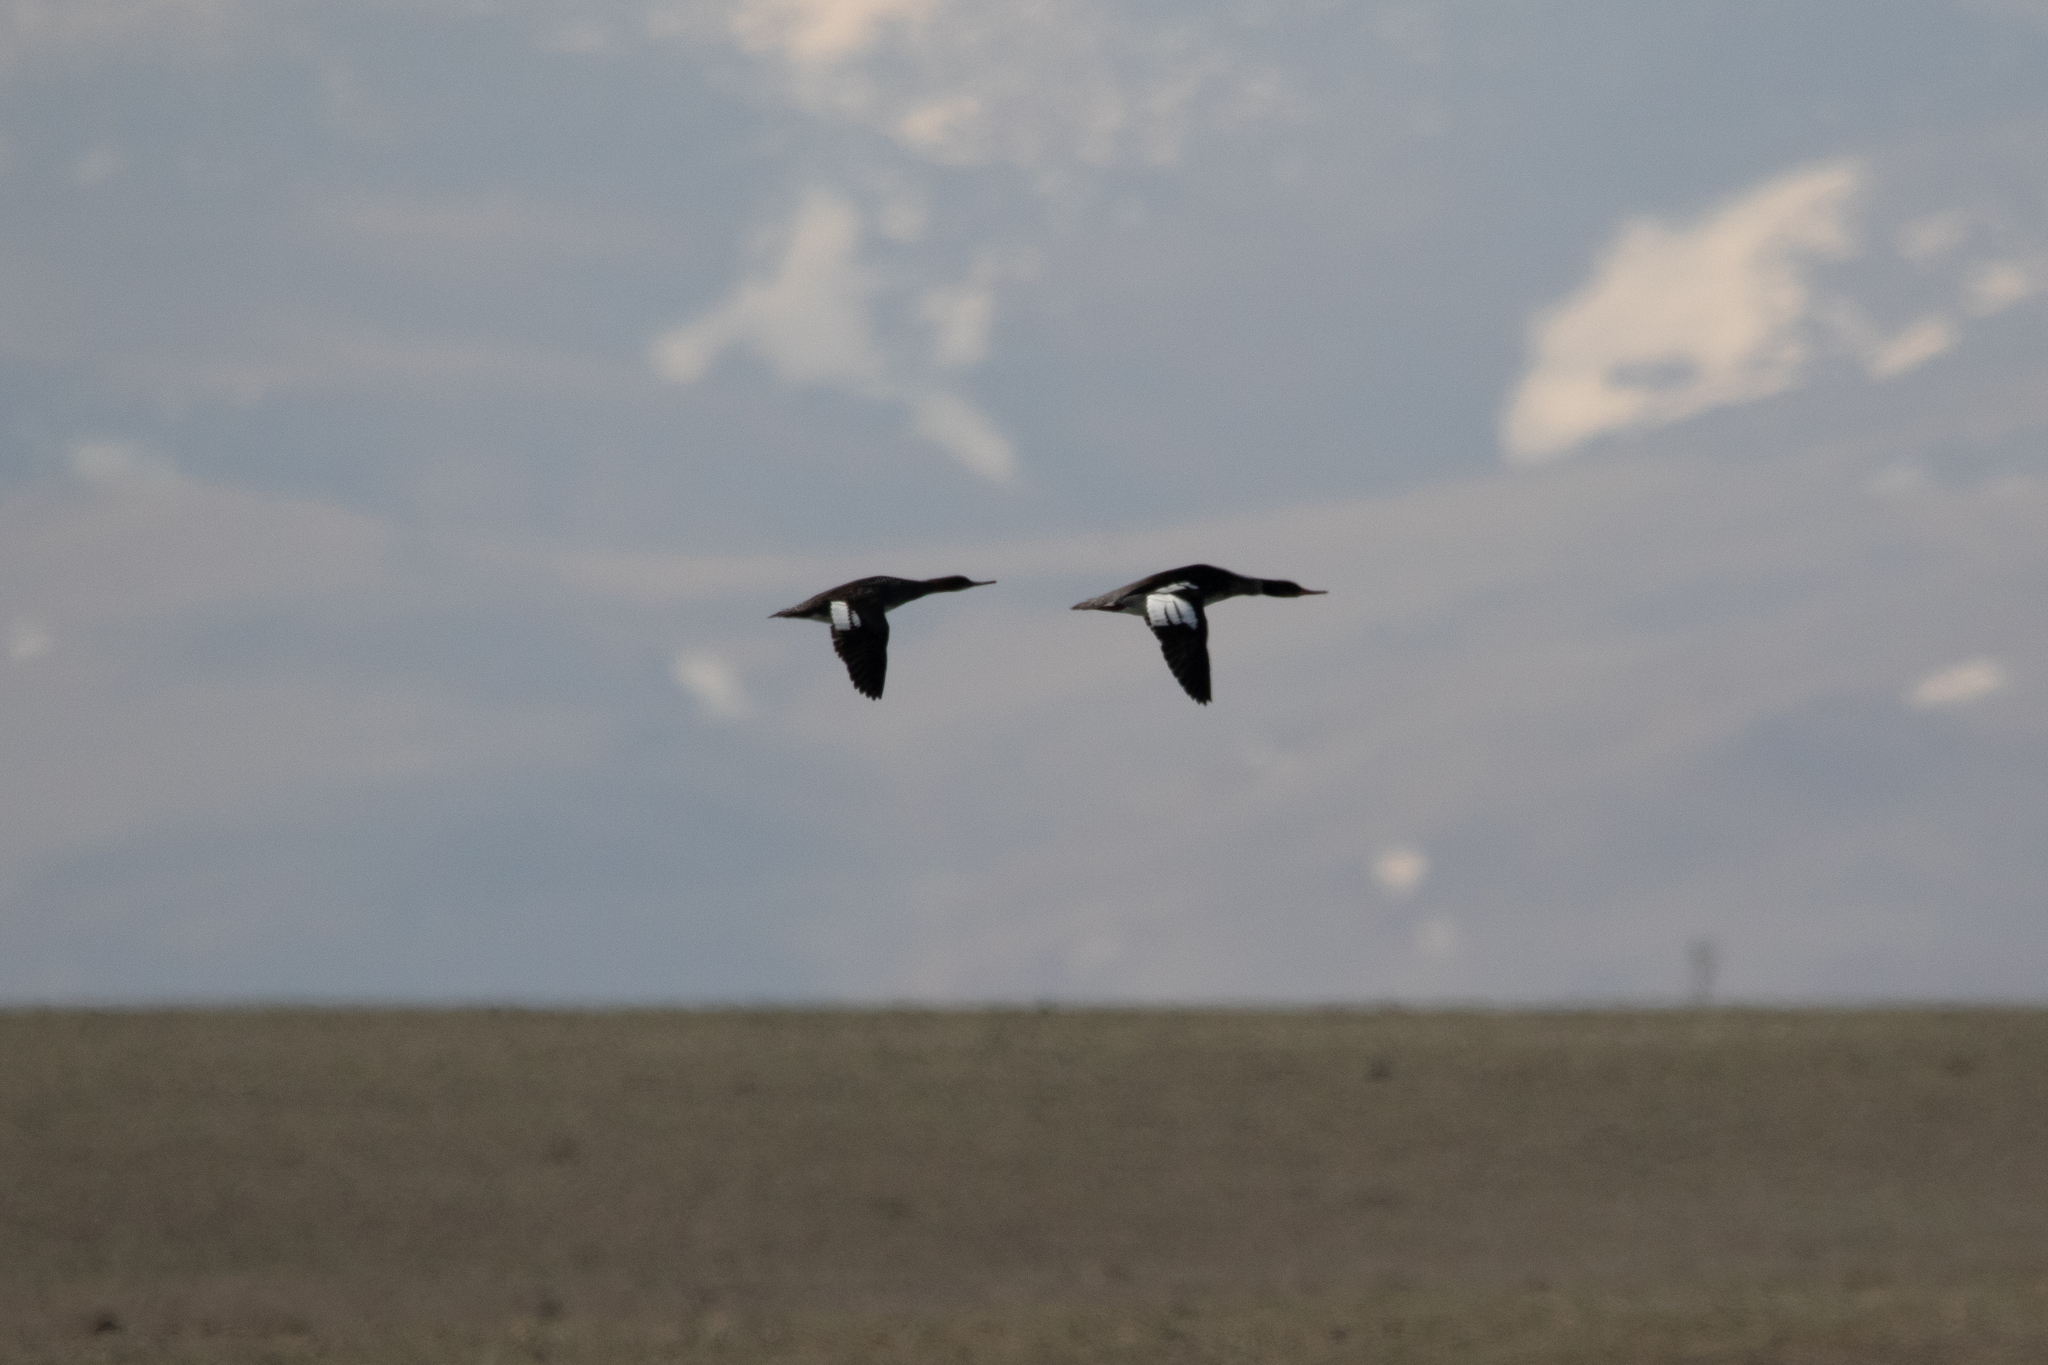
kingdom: Animalia
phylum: Chordata
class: Aves
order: Anseriformes
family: Anatidae
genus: Mergus
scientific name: Mergus serrator
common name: Red-breasted merganser
